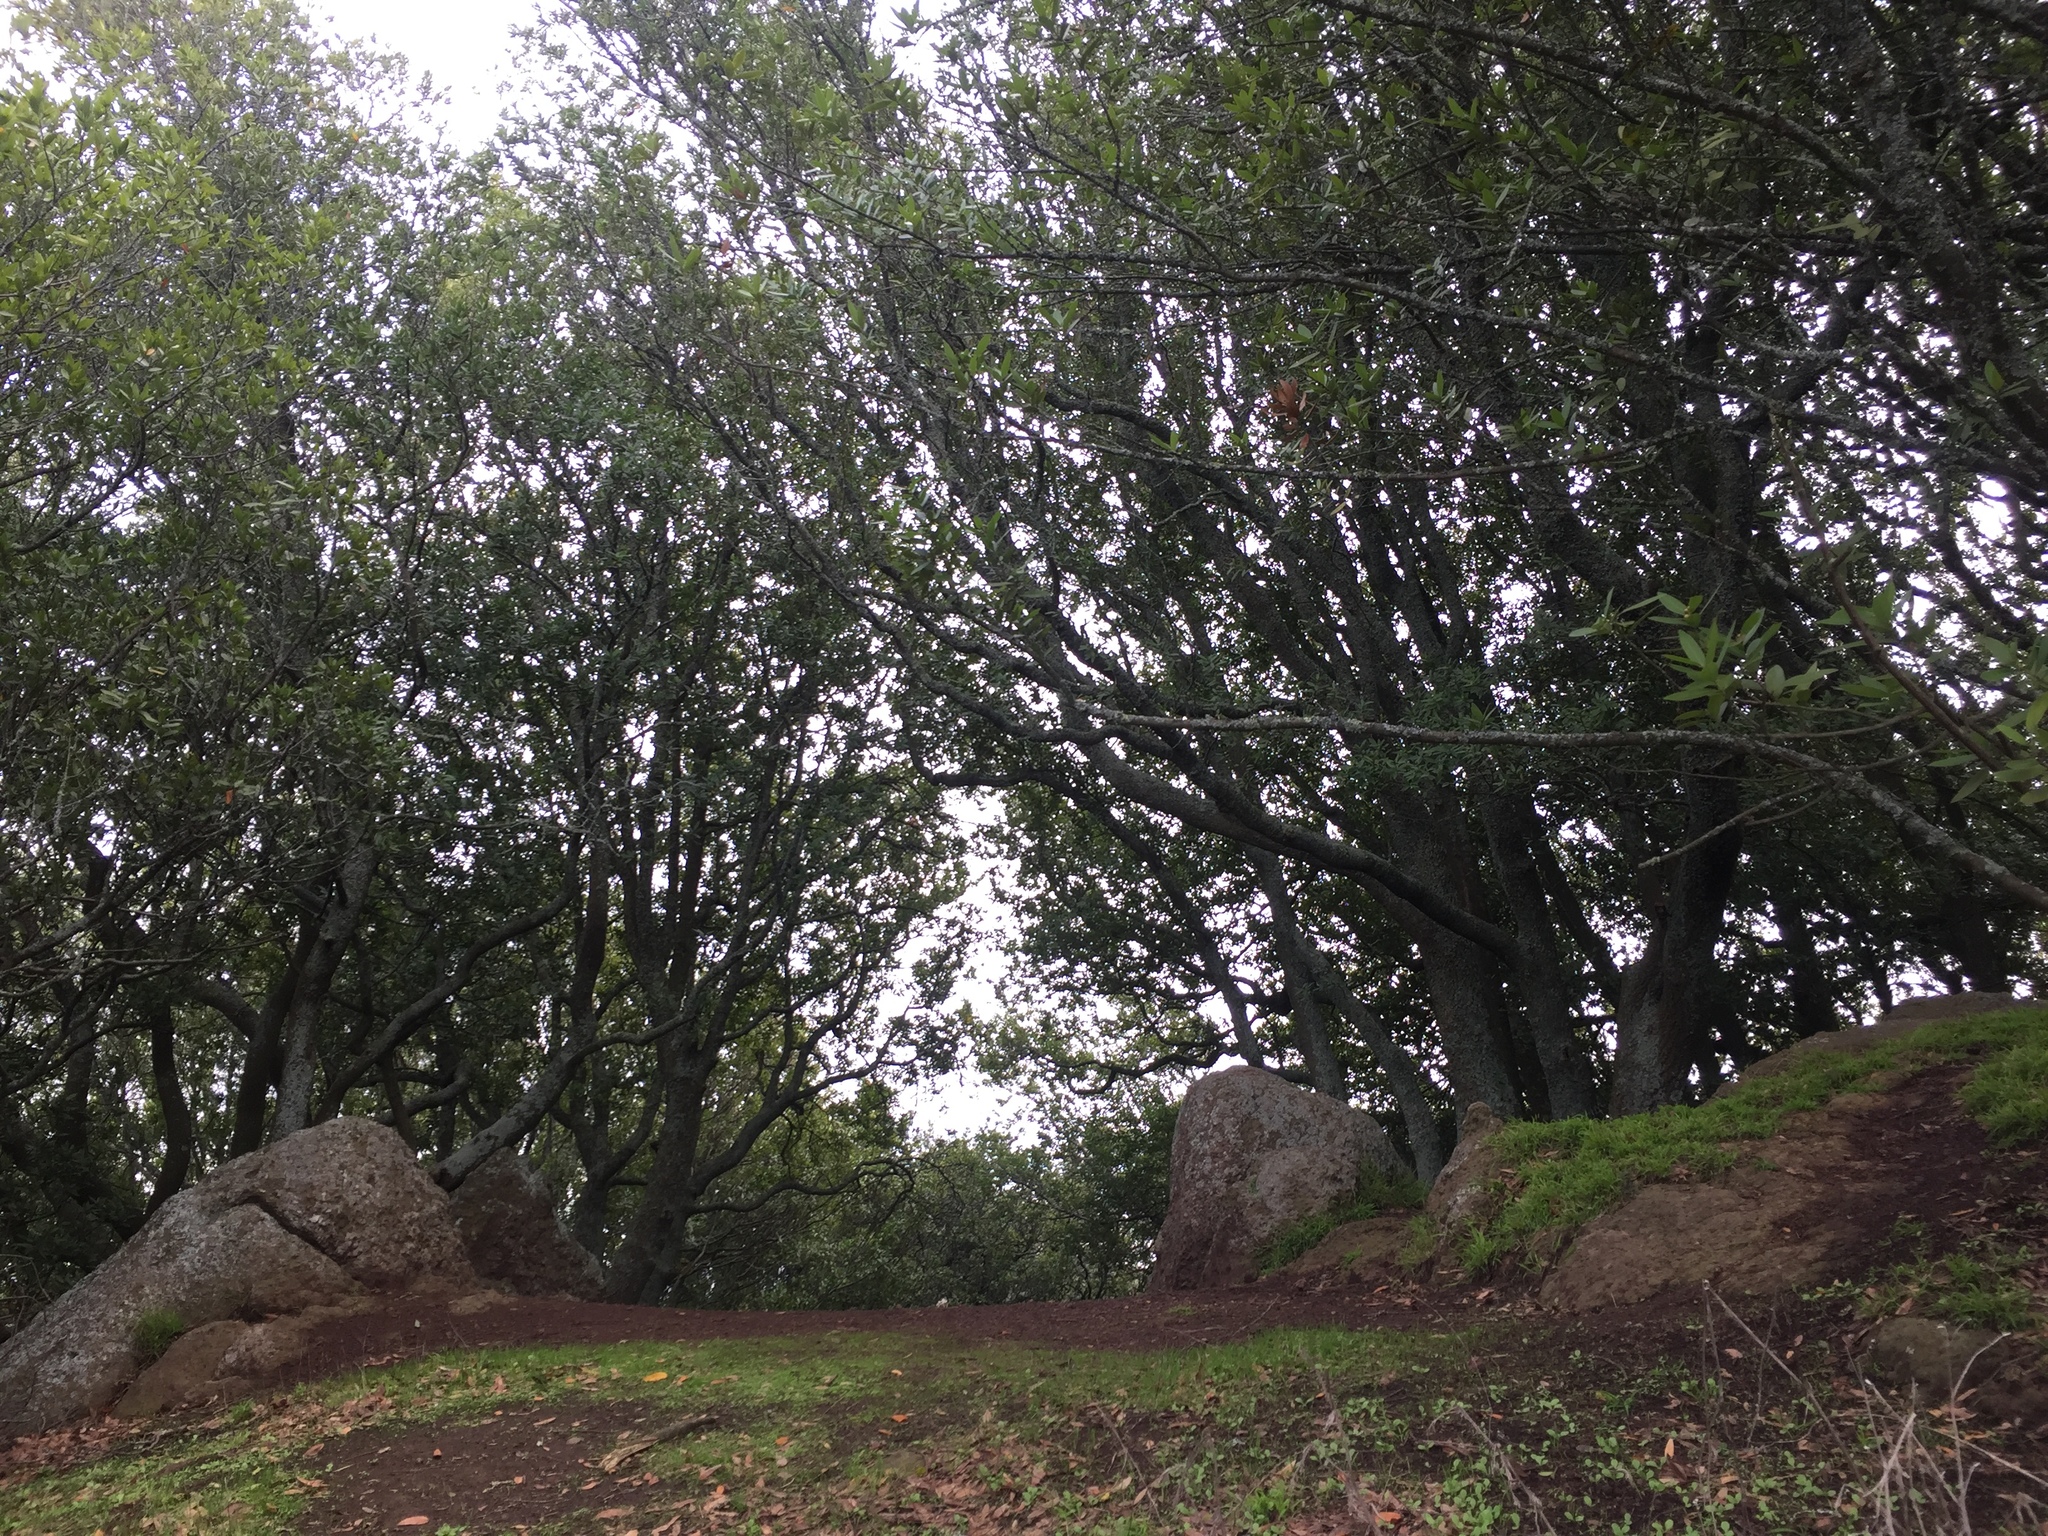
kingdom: Plantae
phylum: Tracheophyta
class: Magnoliopsida
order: Laurales
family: Lauraceae
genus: Umbellularia
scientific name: Umbellularia californica
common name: California bay
